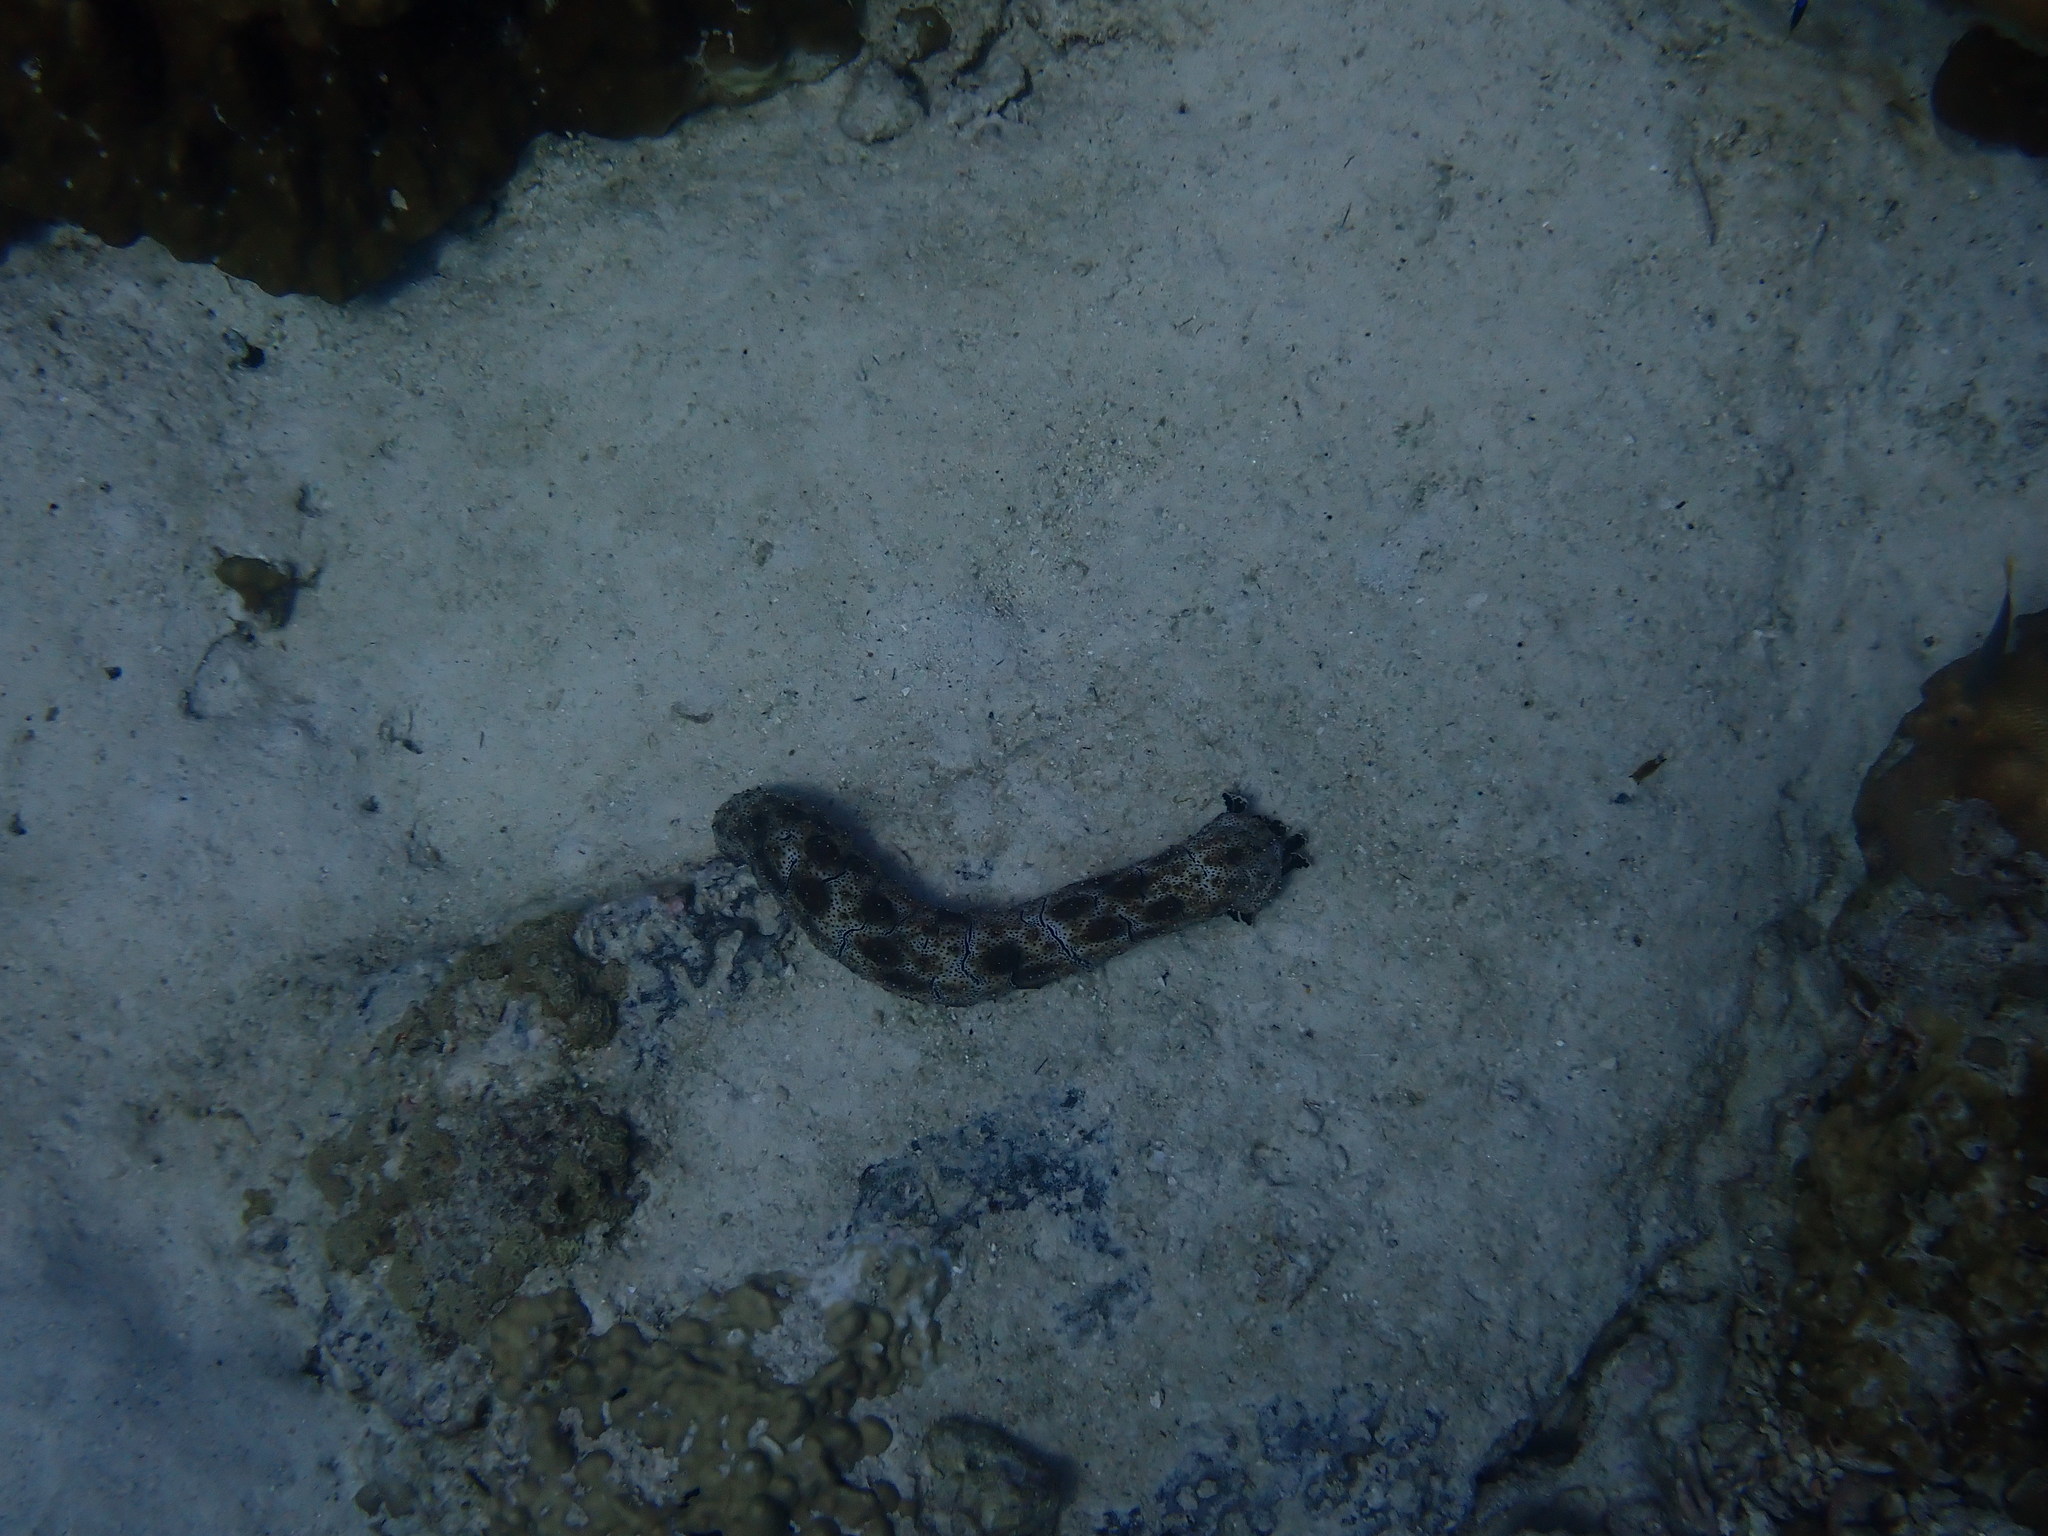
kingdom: Animalia
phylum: Echinodermata
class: Holothuroidea
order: Holothuriida
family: Holothuriidae
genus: Pearsonothuria
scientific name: Pearsonothuria graeffei
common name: Blackspotted sea cucumber
